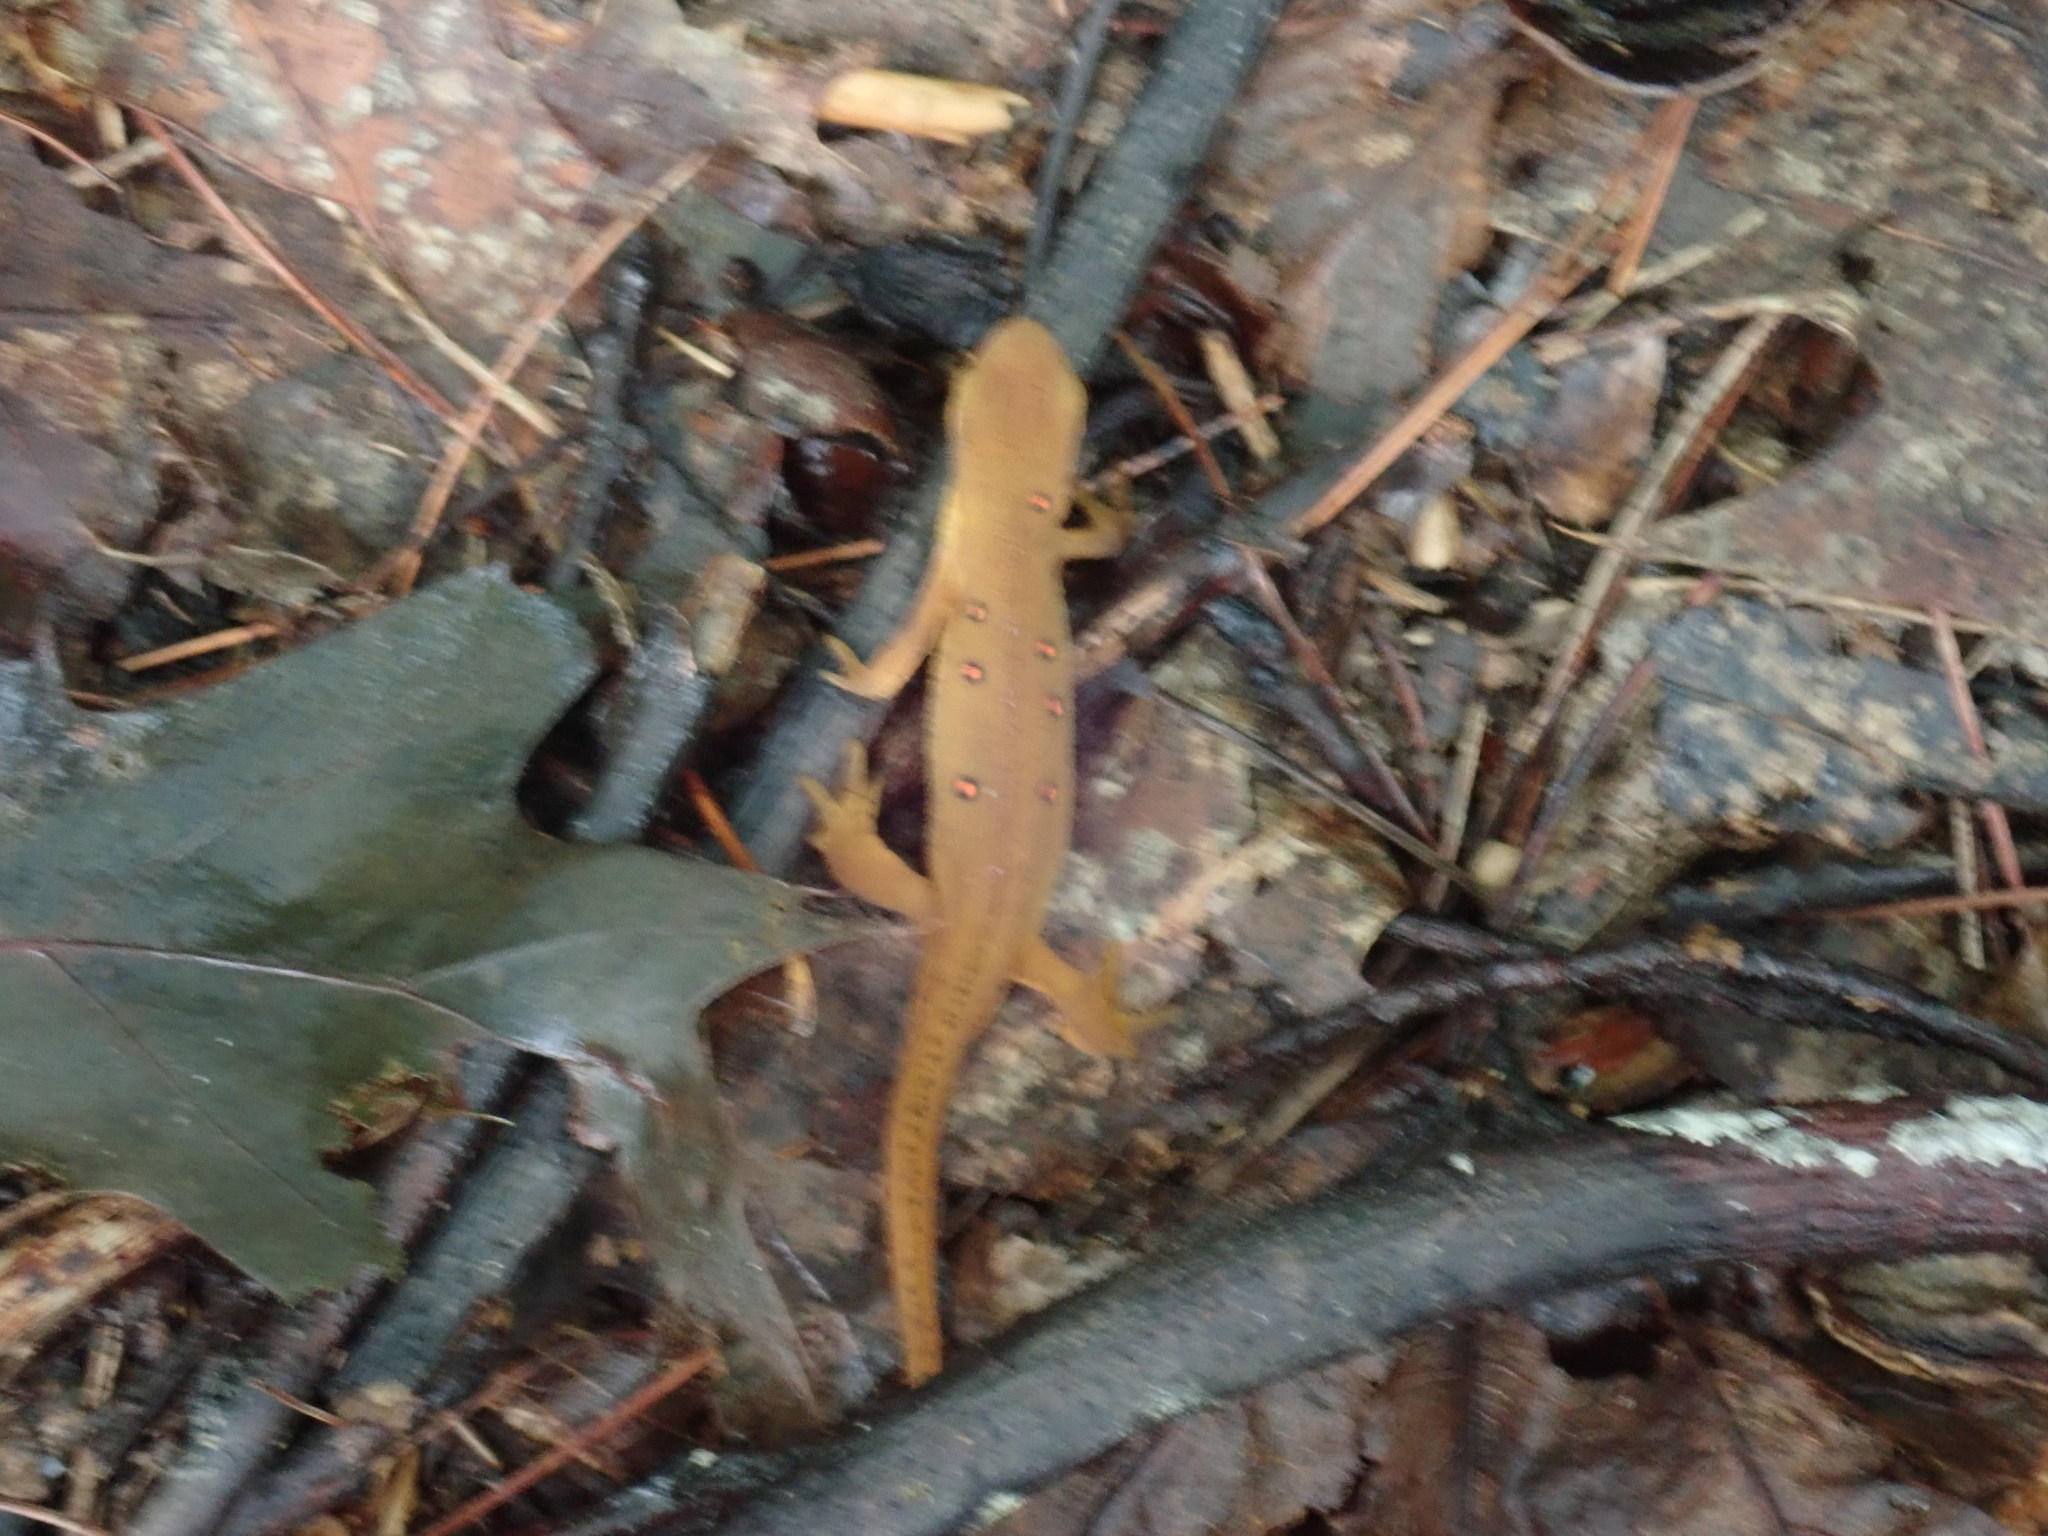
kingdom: Animalia
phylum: Chordata
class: Amphibia
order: Caudata
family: Salamandridae
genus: Notophthalmus
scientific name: Notophthalmus viridescens
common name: Eastern newt
